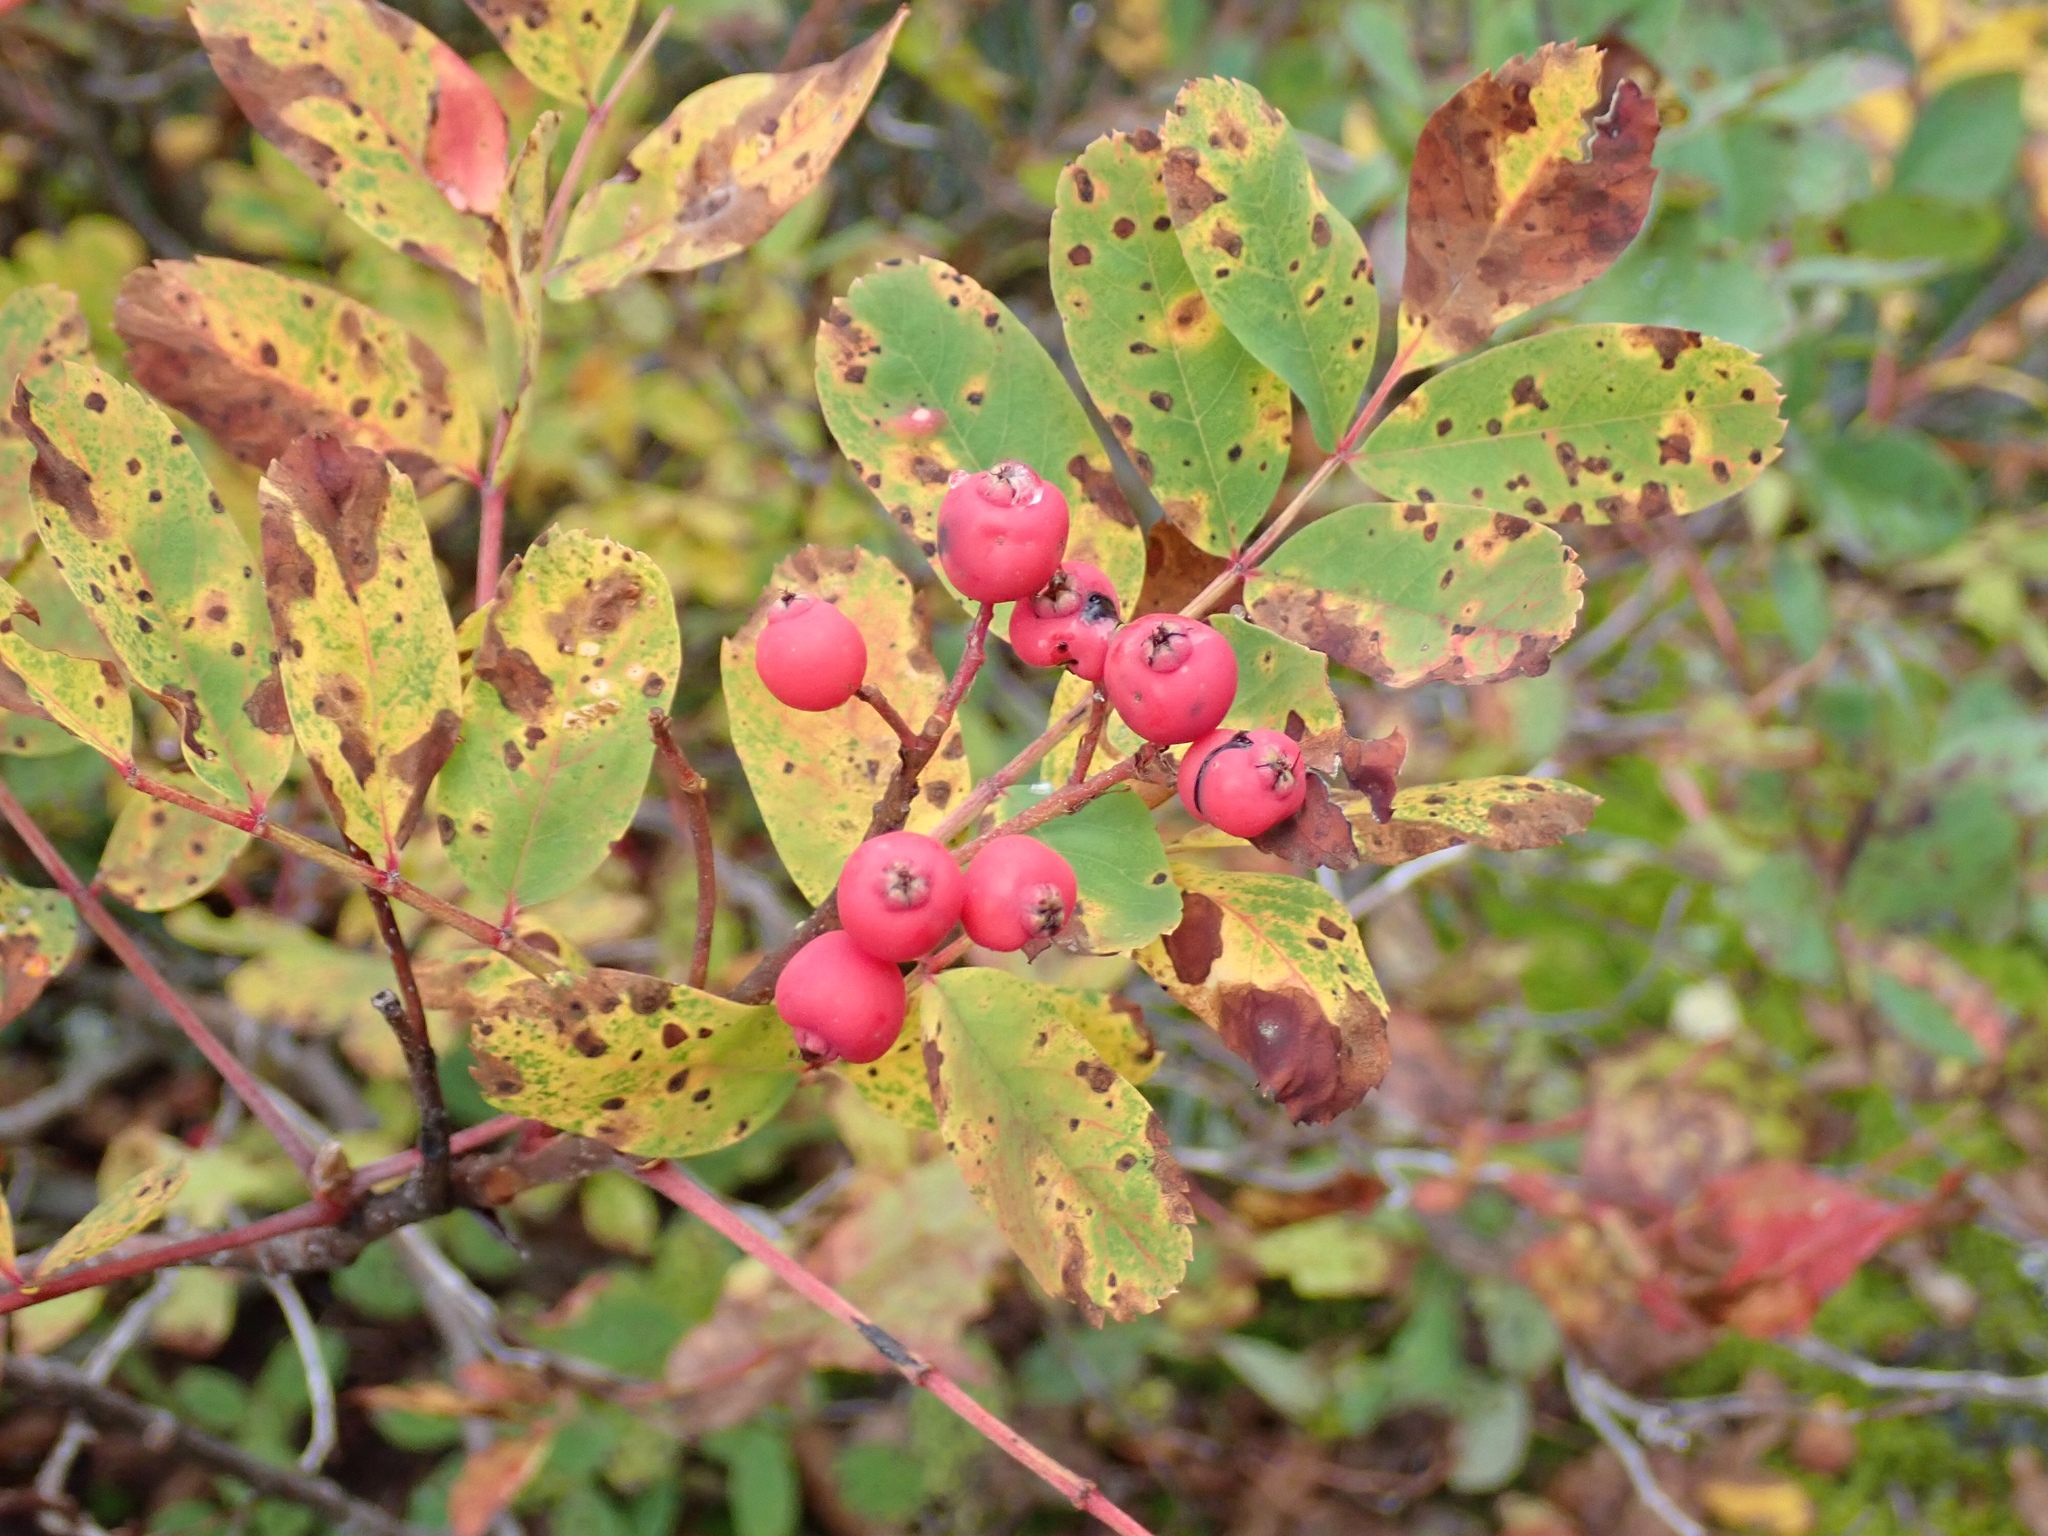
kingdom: Plantae
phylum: Tracheophyta
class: Magnoliopsida
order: Rosales
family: Rosaceae
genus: Sorbus
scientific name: Sorbus sitchensis
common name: Sitka mountain-ash
